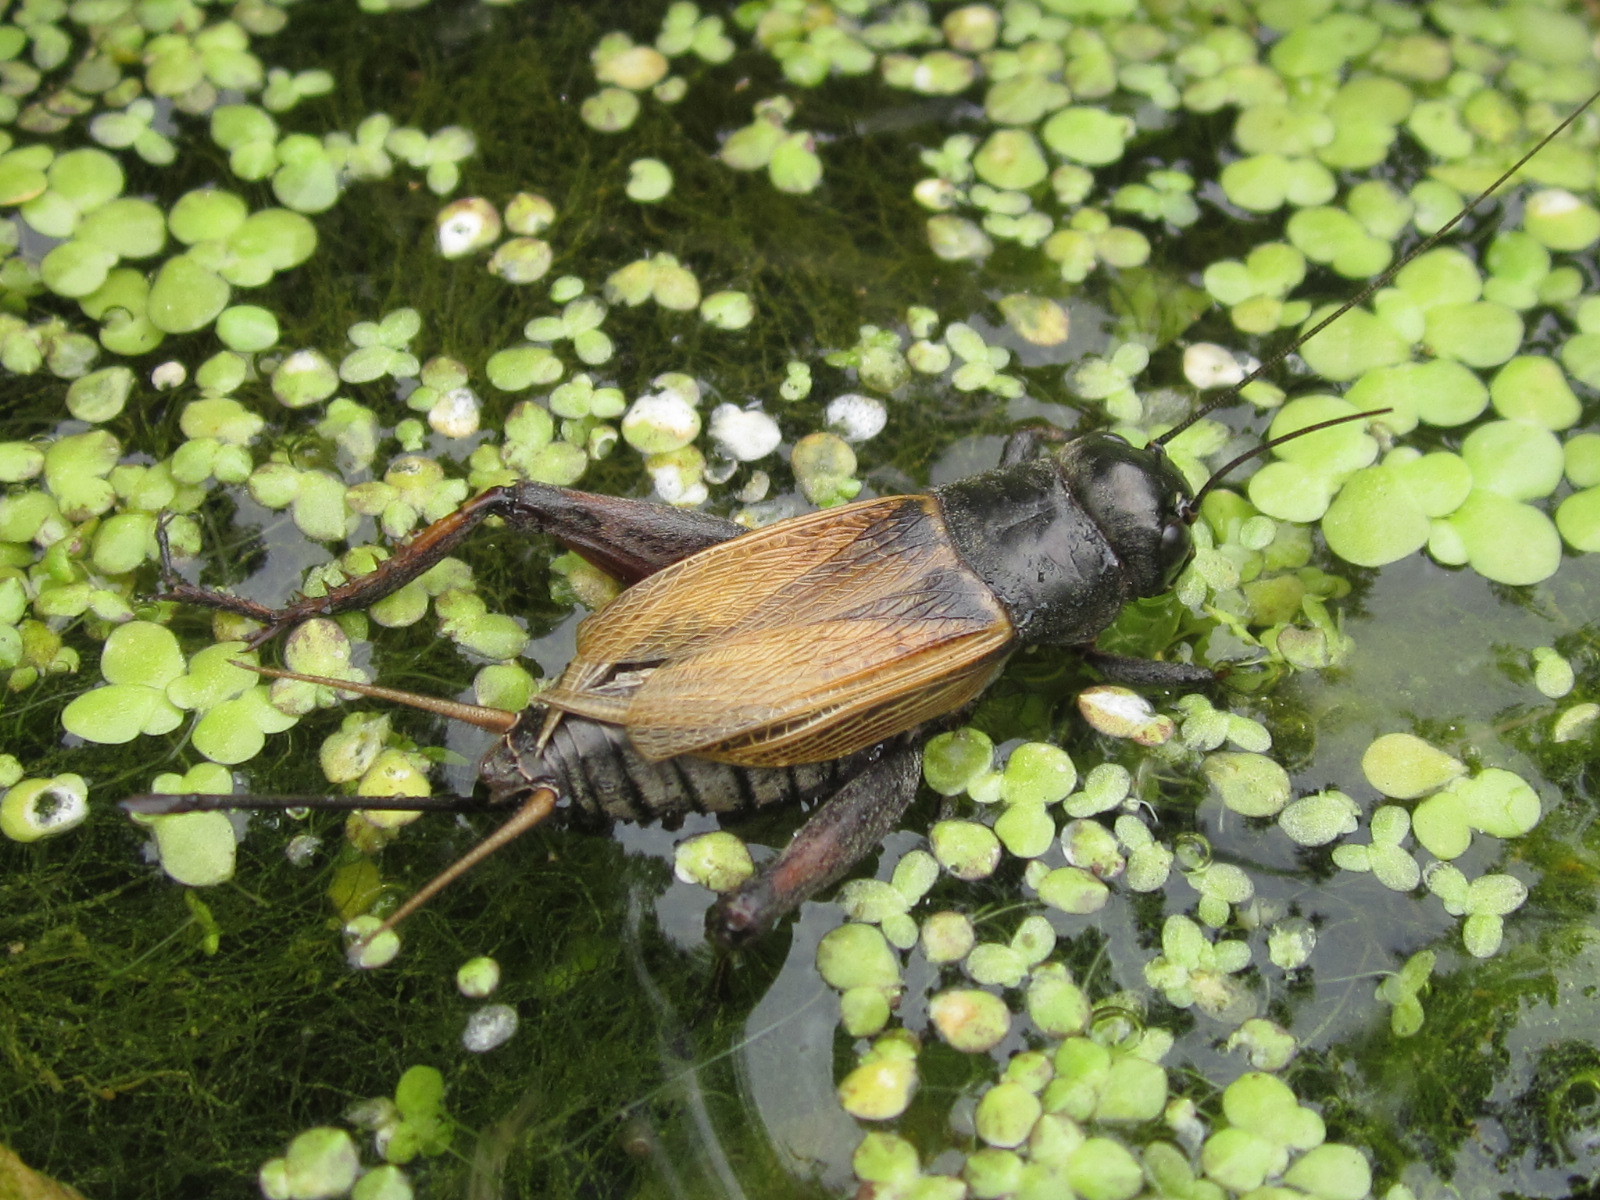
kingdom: Animalia
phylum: Arthropoda
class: Insecta
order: Orthoptera
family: Gryllidae
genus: Gryllus
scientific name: Gryllus fulvipennis
